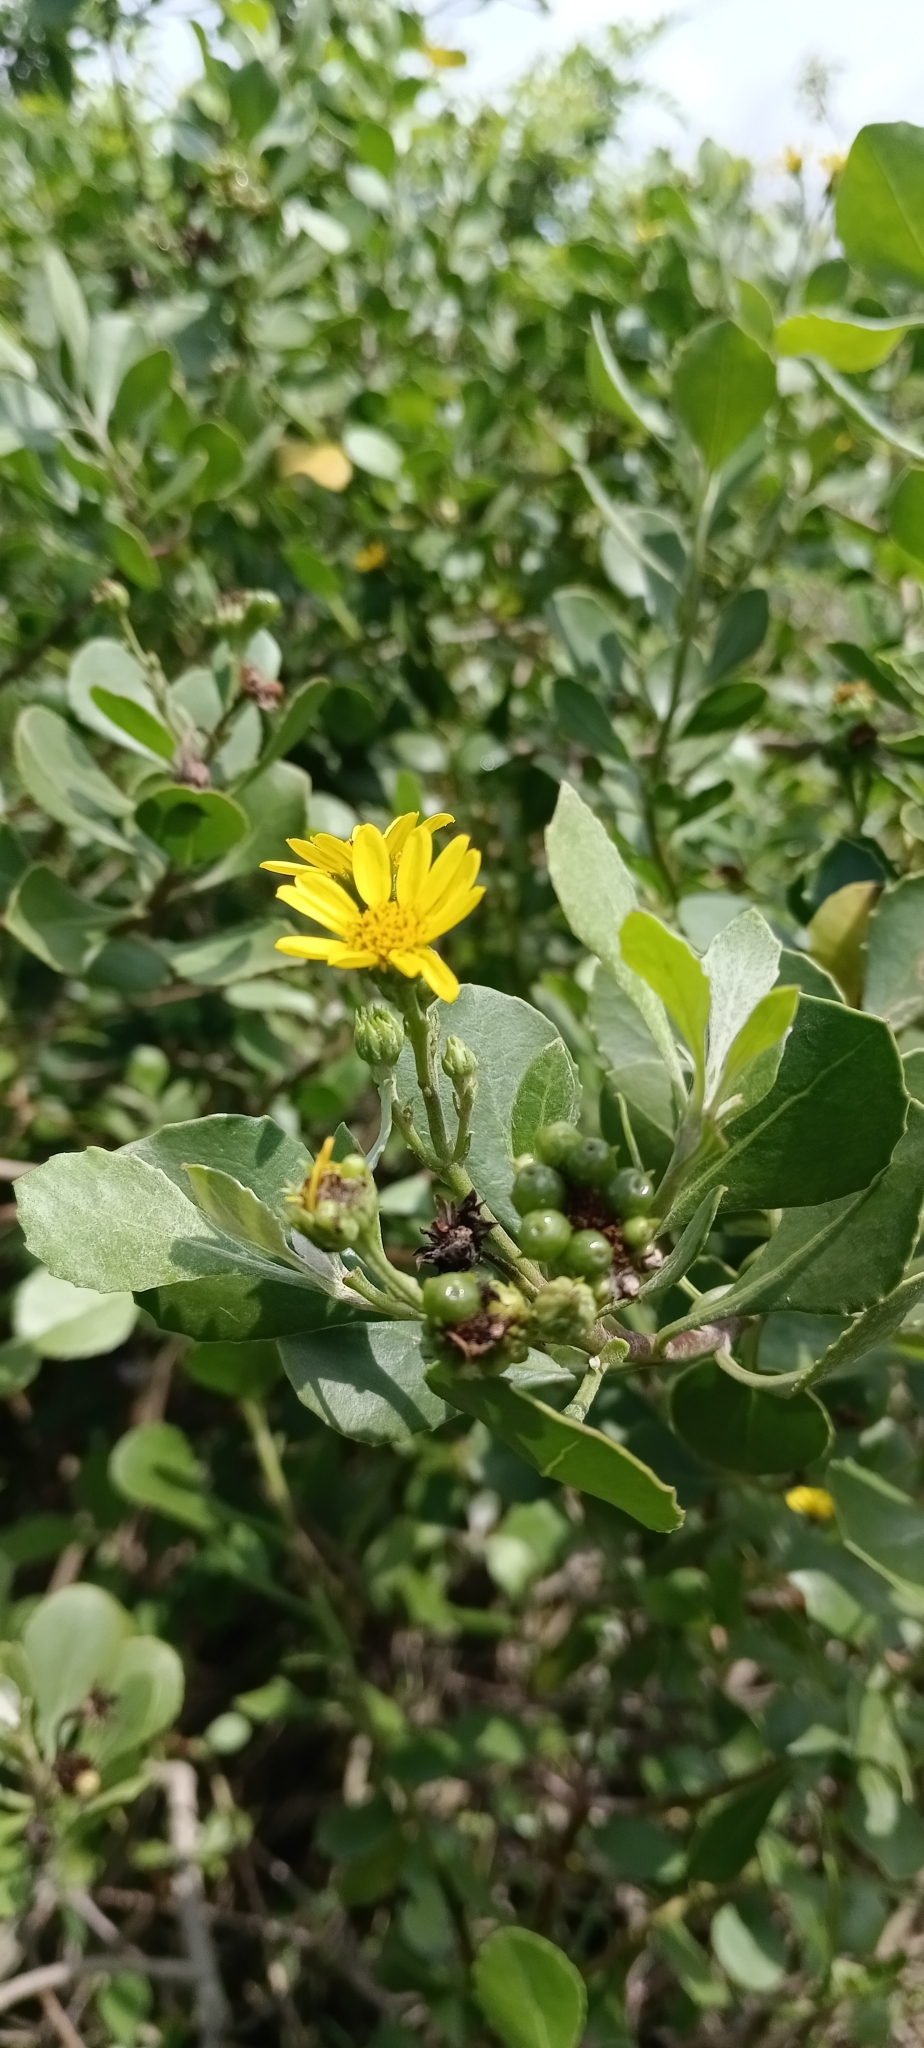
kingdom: Plantae
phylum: Tracheophyta
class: Magnoliopsida
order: Asterales
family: Asteraceae
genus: Osteospermum
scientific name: Osteospermum moniliferum
